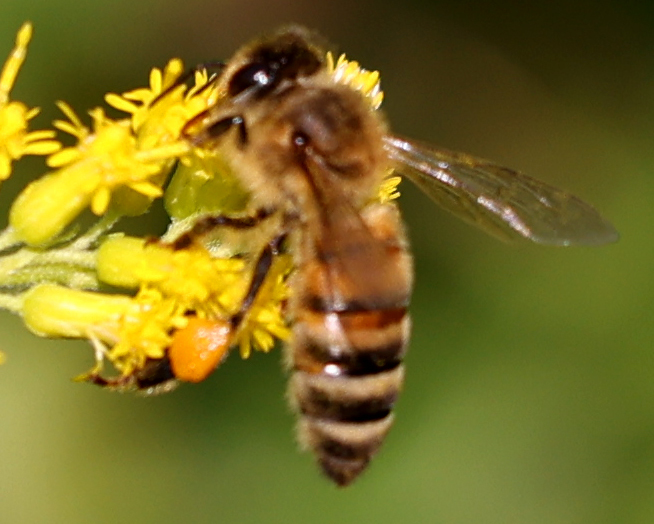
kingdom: Animalia
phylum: Arthropoda
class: Insecta
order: Hymenoptera
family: Apidae
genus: Apis
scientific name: Apis mellifera
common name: Honey bee
